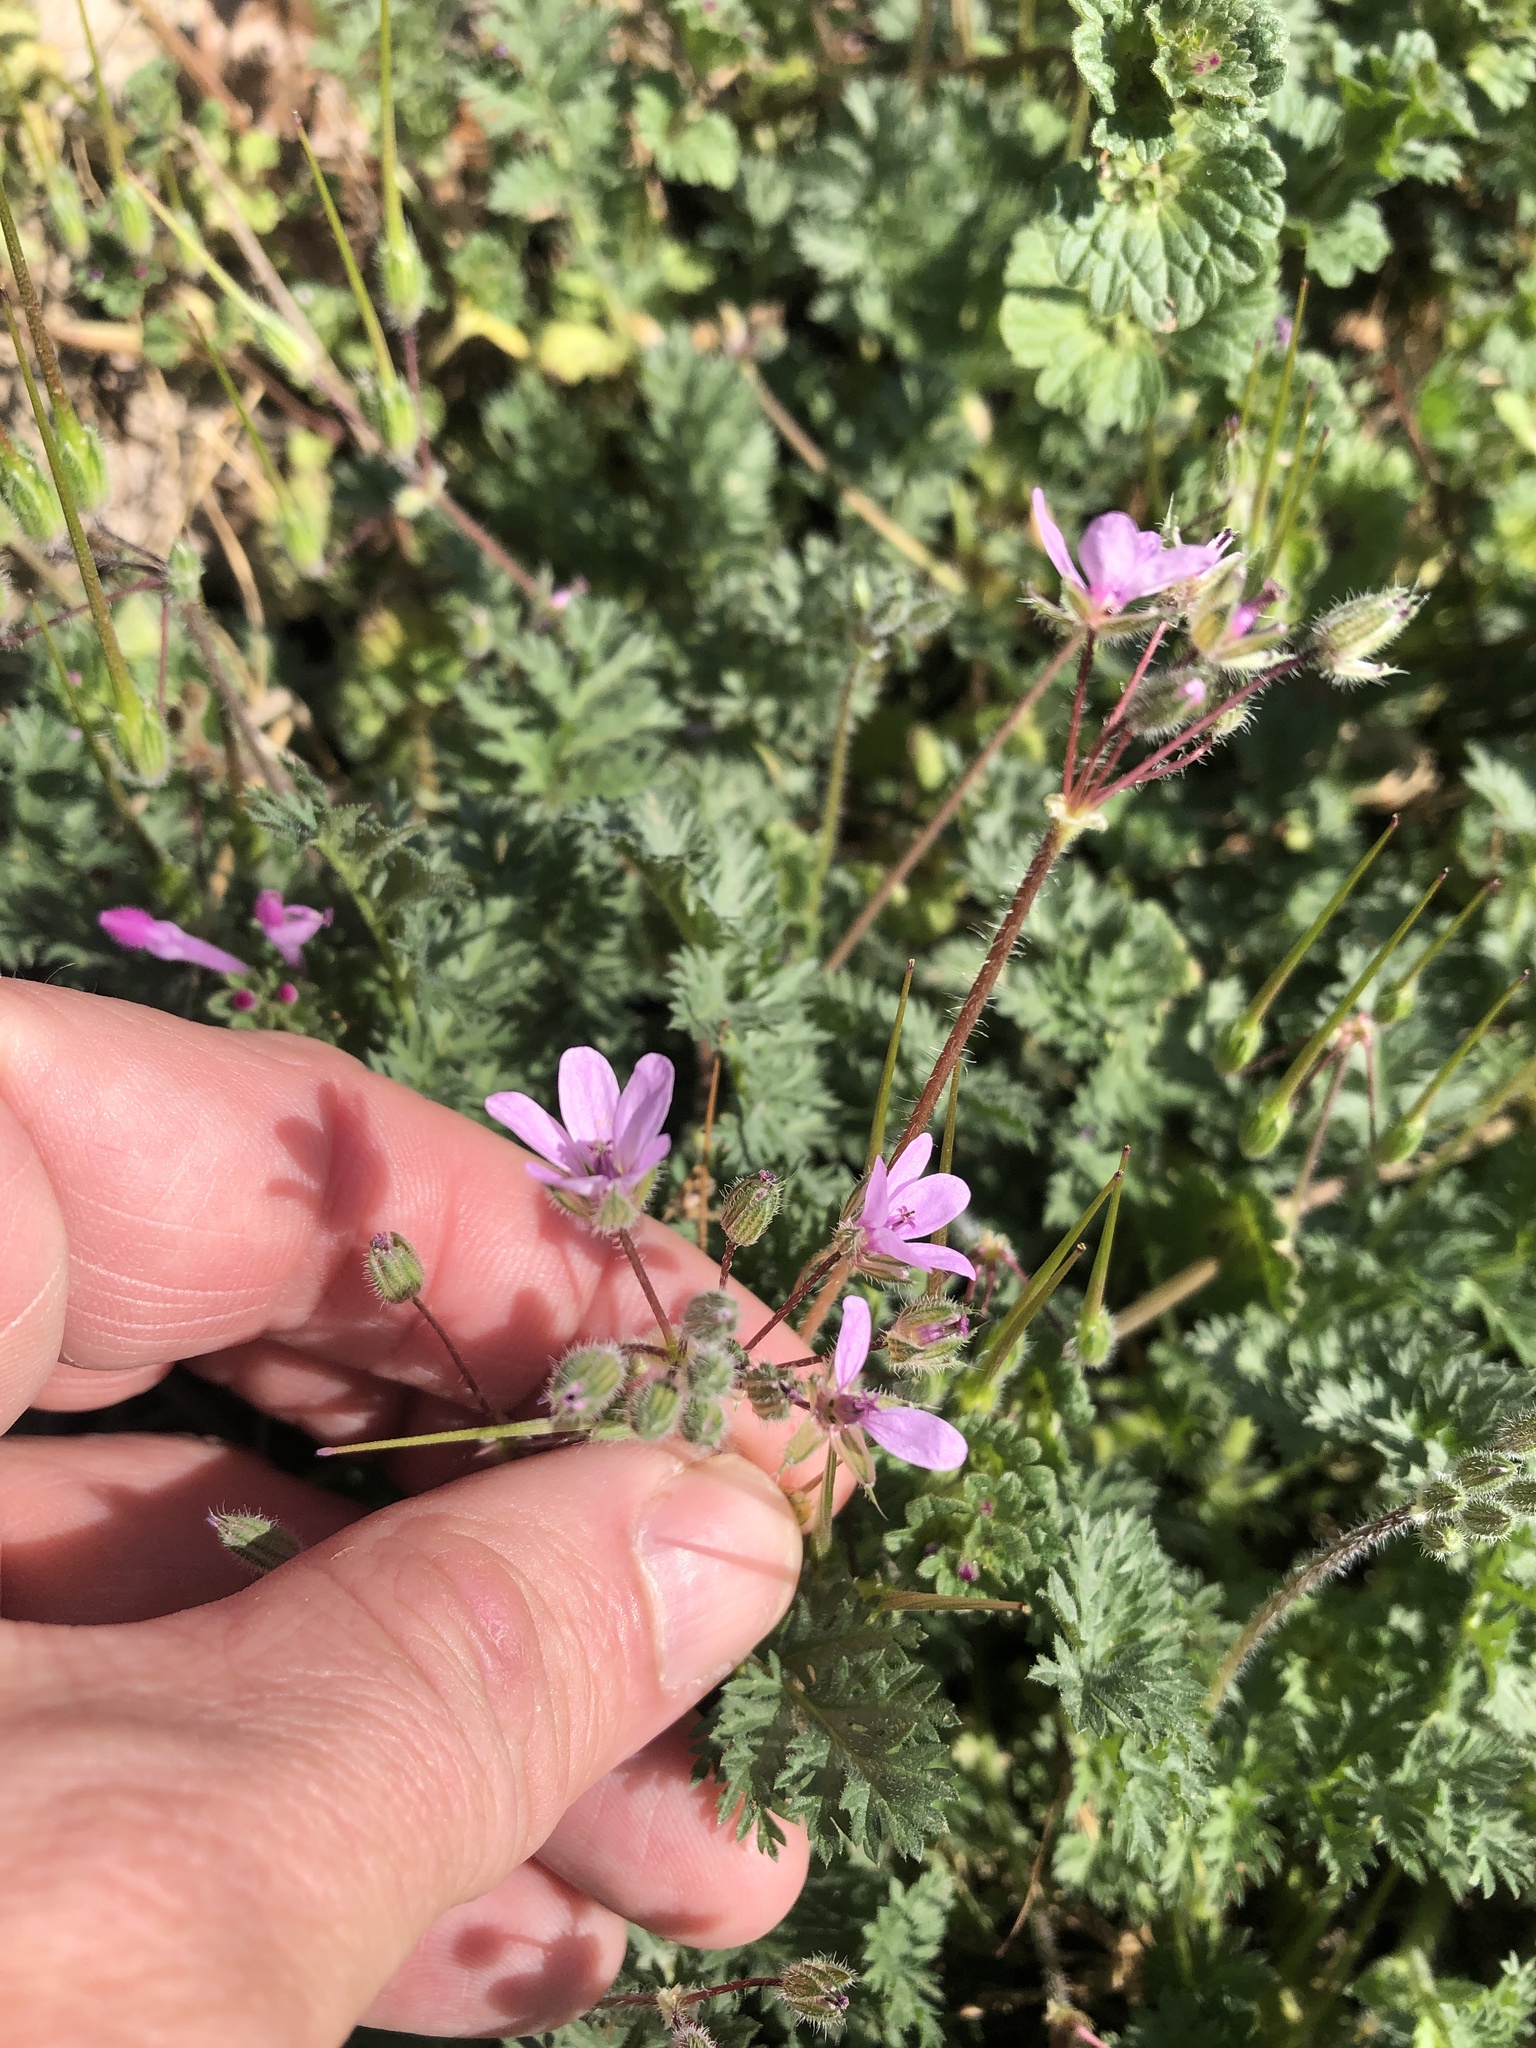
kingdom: Plantae
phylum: Tracheophyta
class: Magnoliopsida
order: Geraniales
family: Geraniaceae
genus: Erodium
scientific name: Erodium cicutarium
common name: Common stork's-bill
